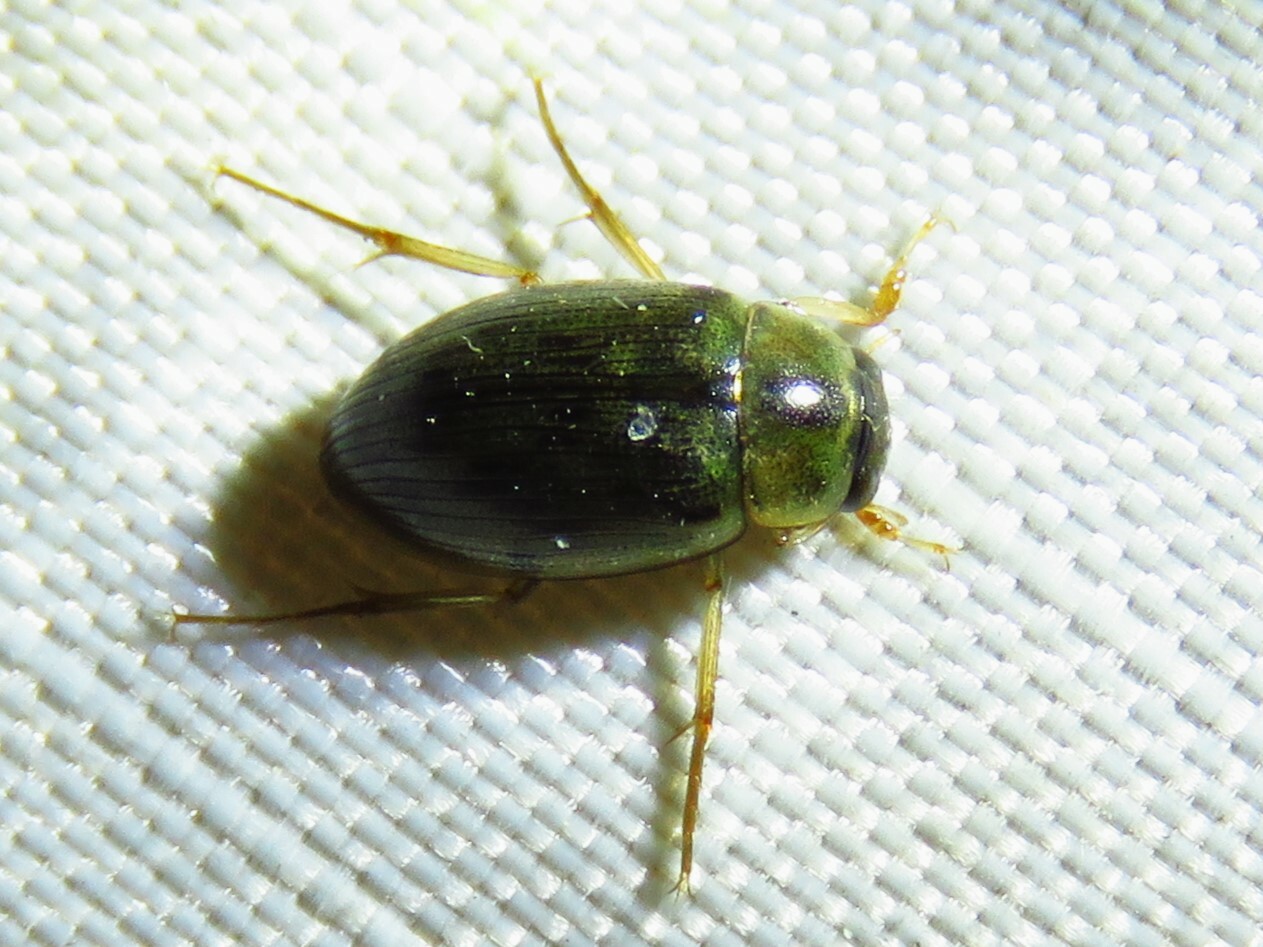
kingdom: Animalia
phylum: Arthropoda
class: Insecta
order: Coleoptera
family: Hydrophilidae
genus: Berosus
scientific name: Berosus
